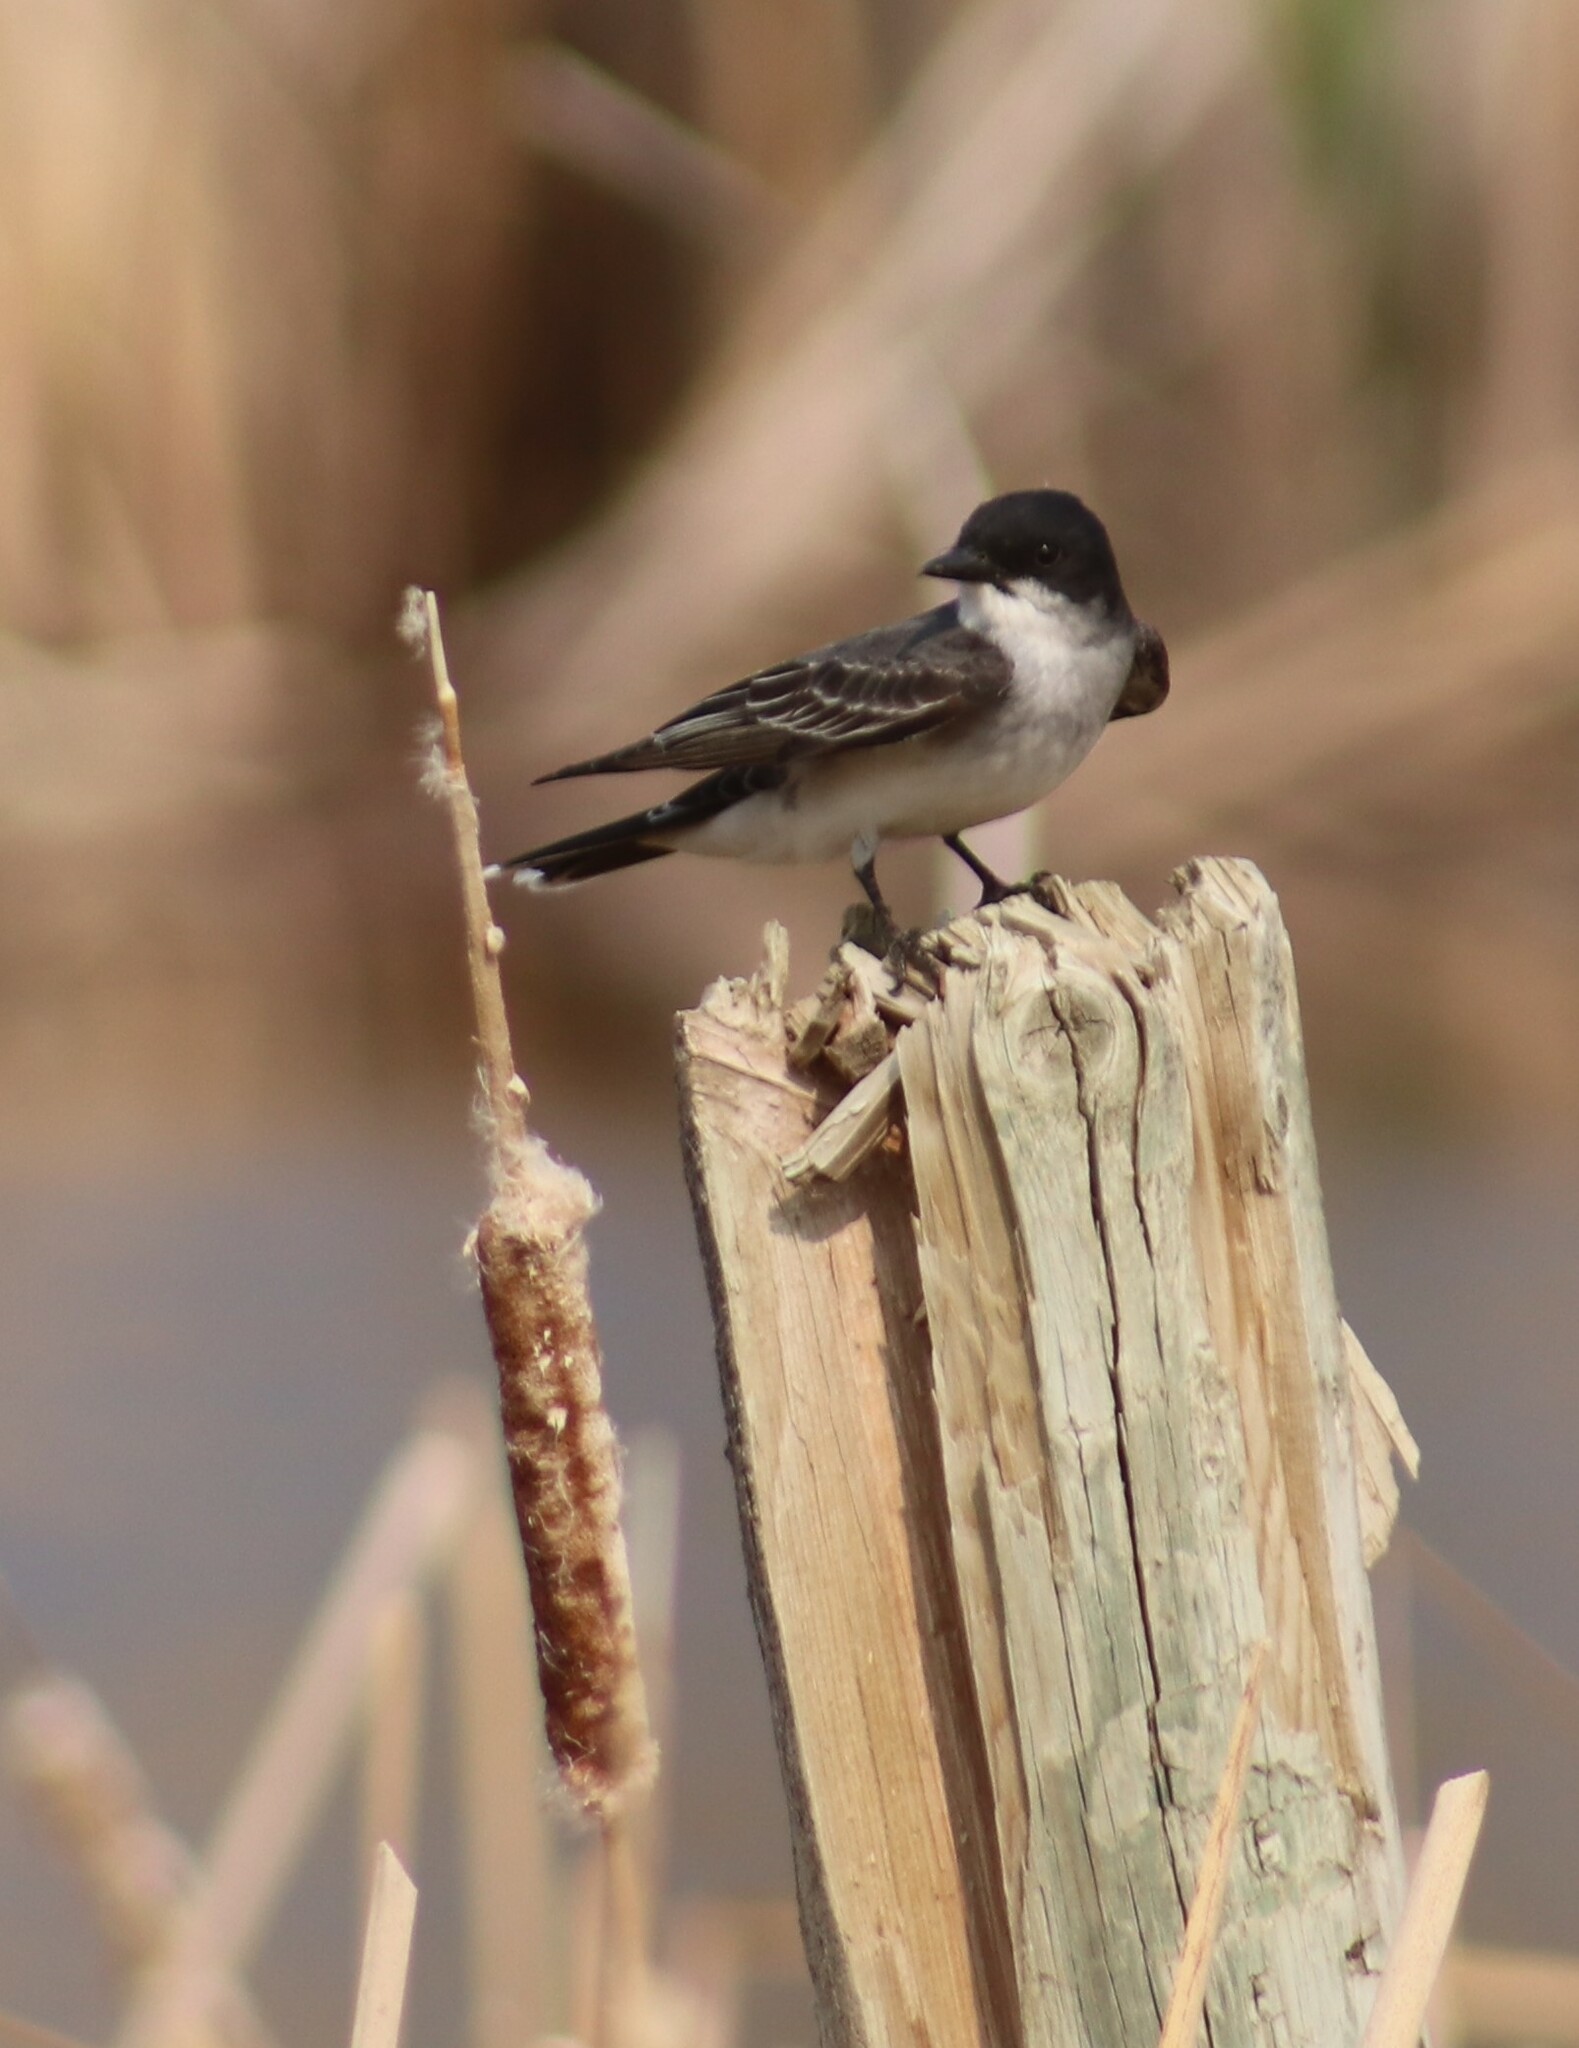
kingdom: Animalia
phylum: Chordata
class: Aves
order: Passeriformes
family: Tyrannidae
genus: Tyrannus
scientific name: Tyrannus tyrannus
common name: Eastern kingbird
